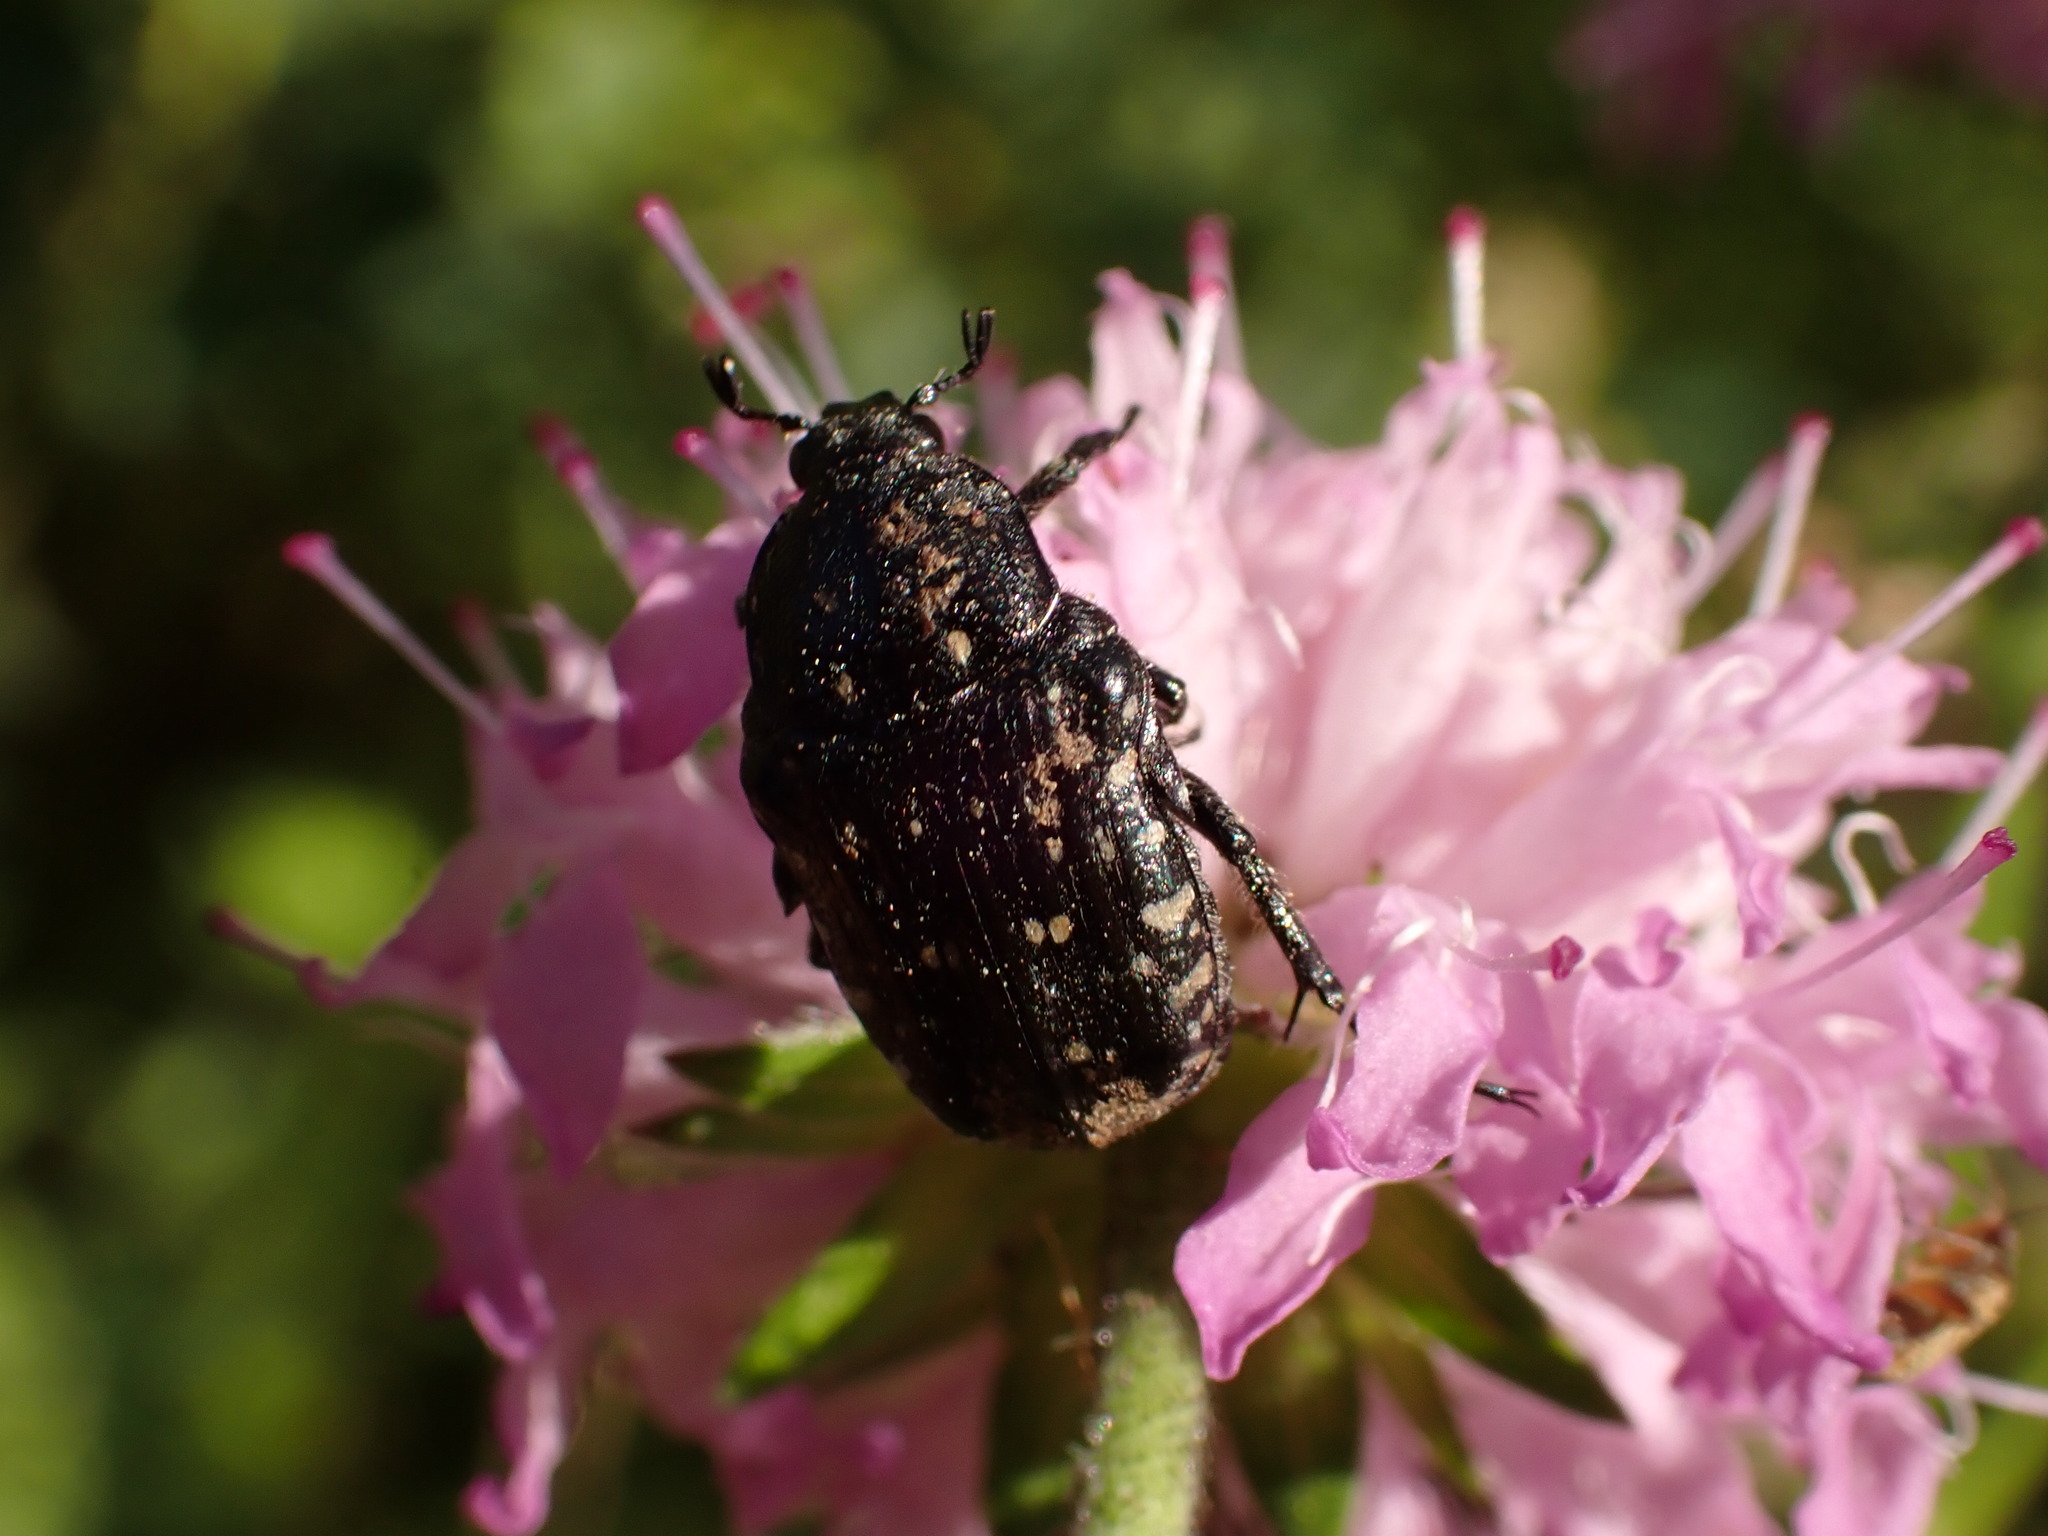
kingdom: Animalia
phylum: Arthropoda
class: Insecta
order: Coleoptera
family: Scarabaeidae
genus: Oxythyrea
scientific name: Oxythyrea funesta
